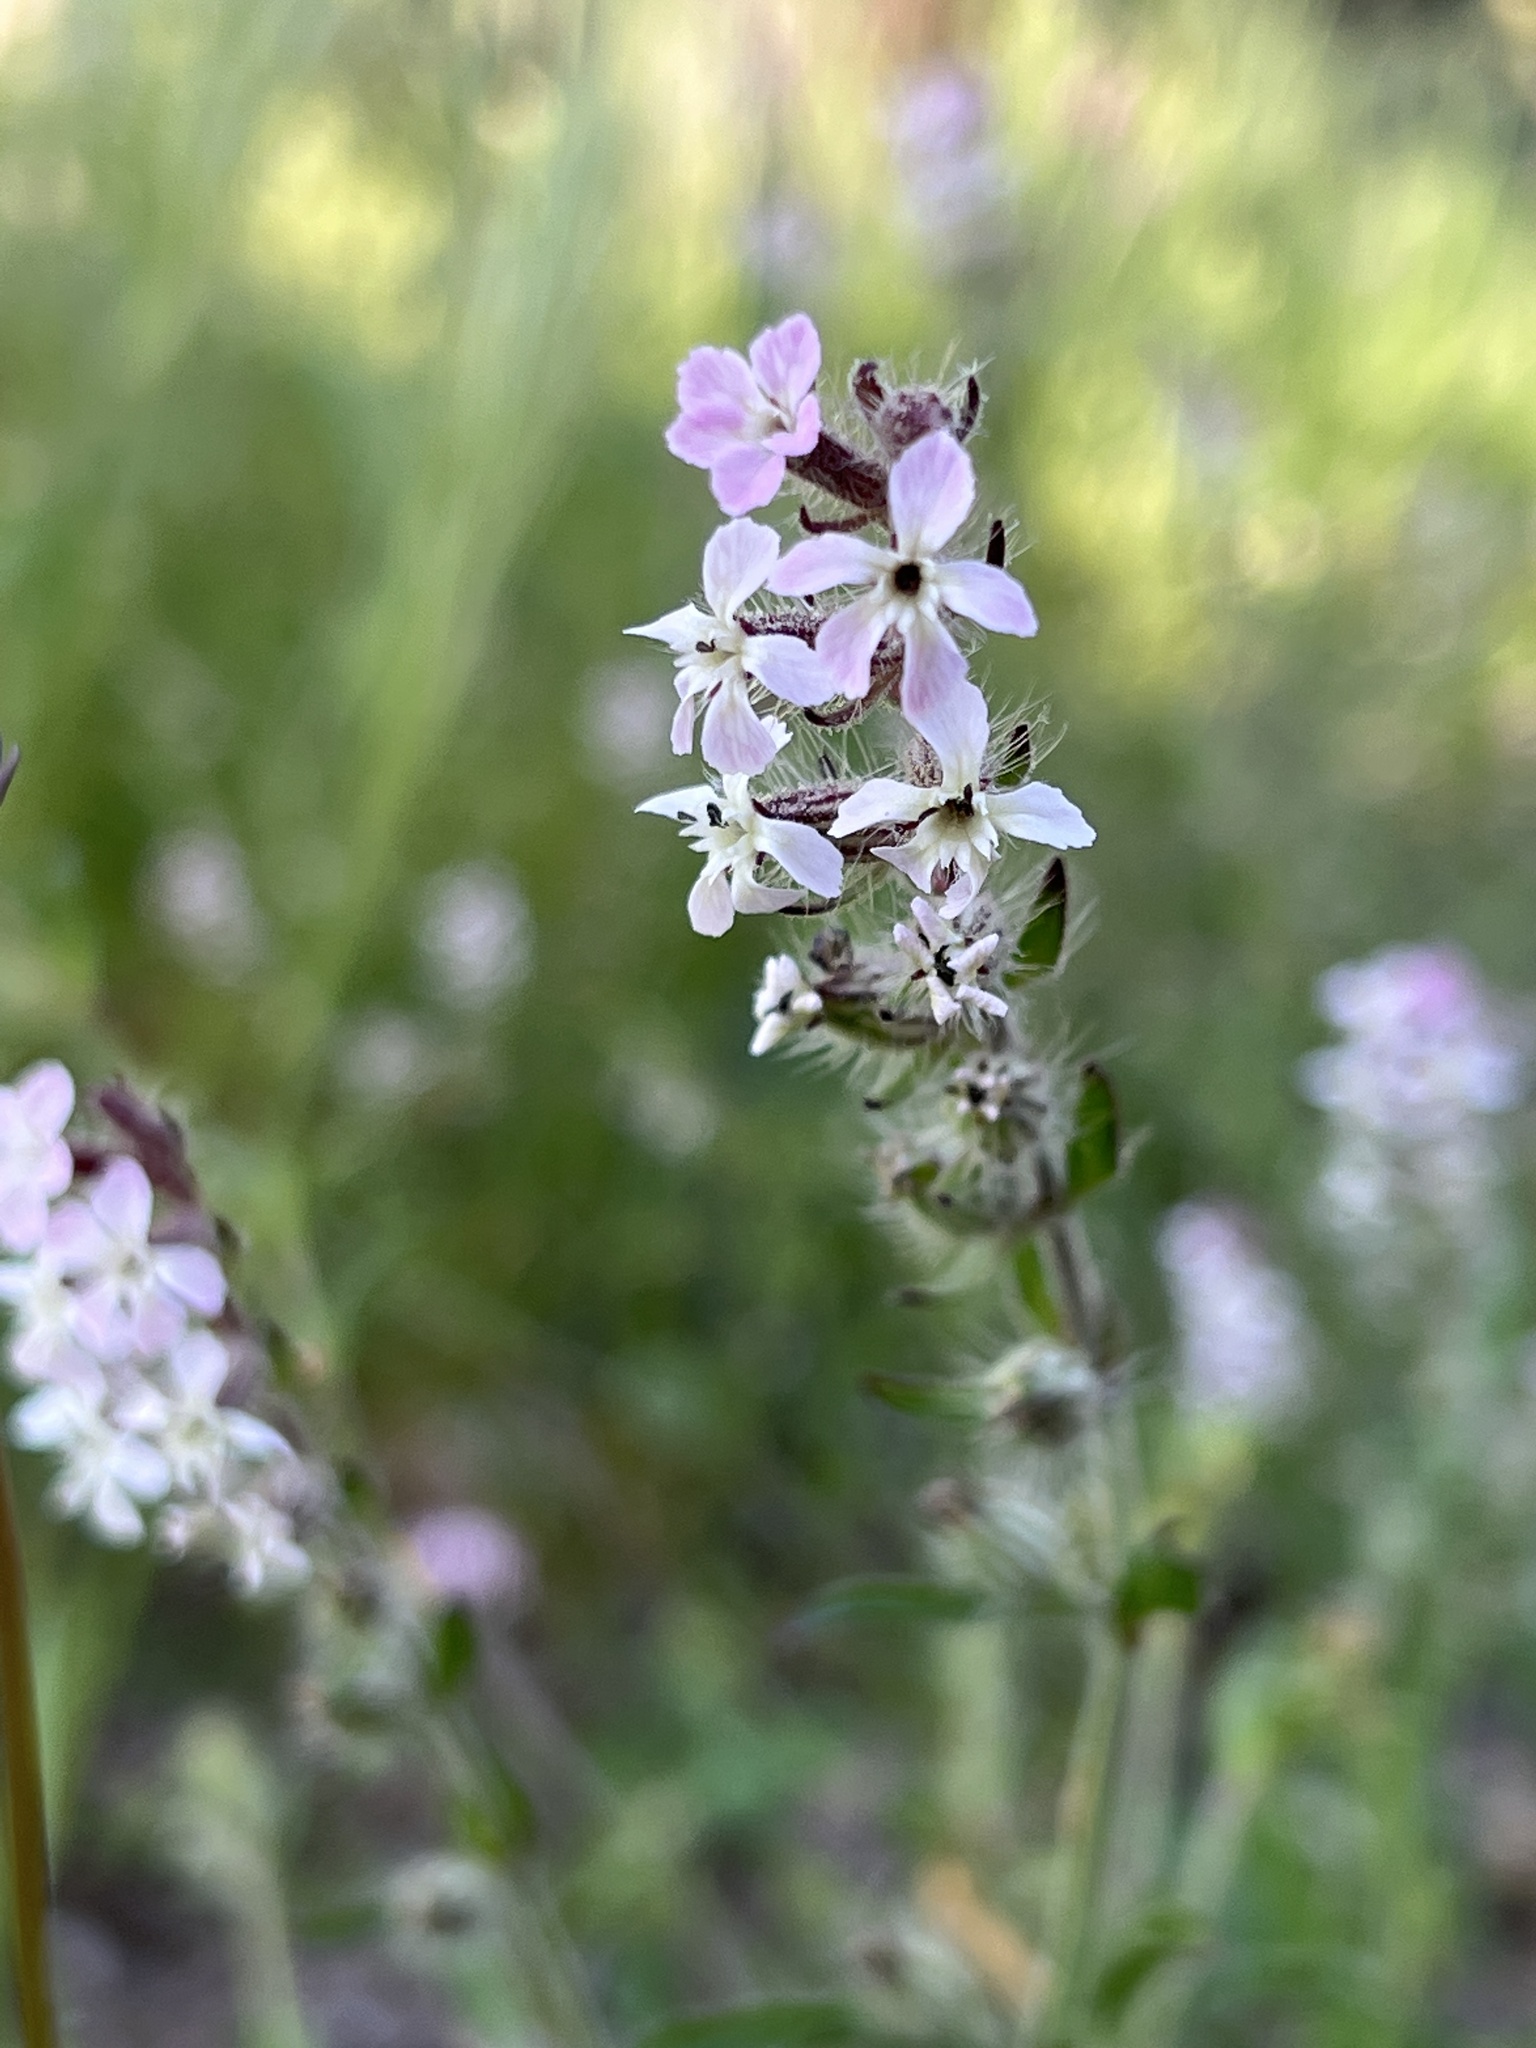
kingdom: Plantae
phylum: Tracheophyta
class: Magnoliopsida
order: Caryophyllales
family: Caryophyllaceae
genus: Silene
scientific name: Silene gallica
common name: Small-flowered catchfly
